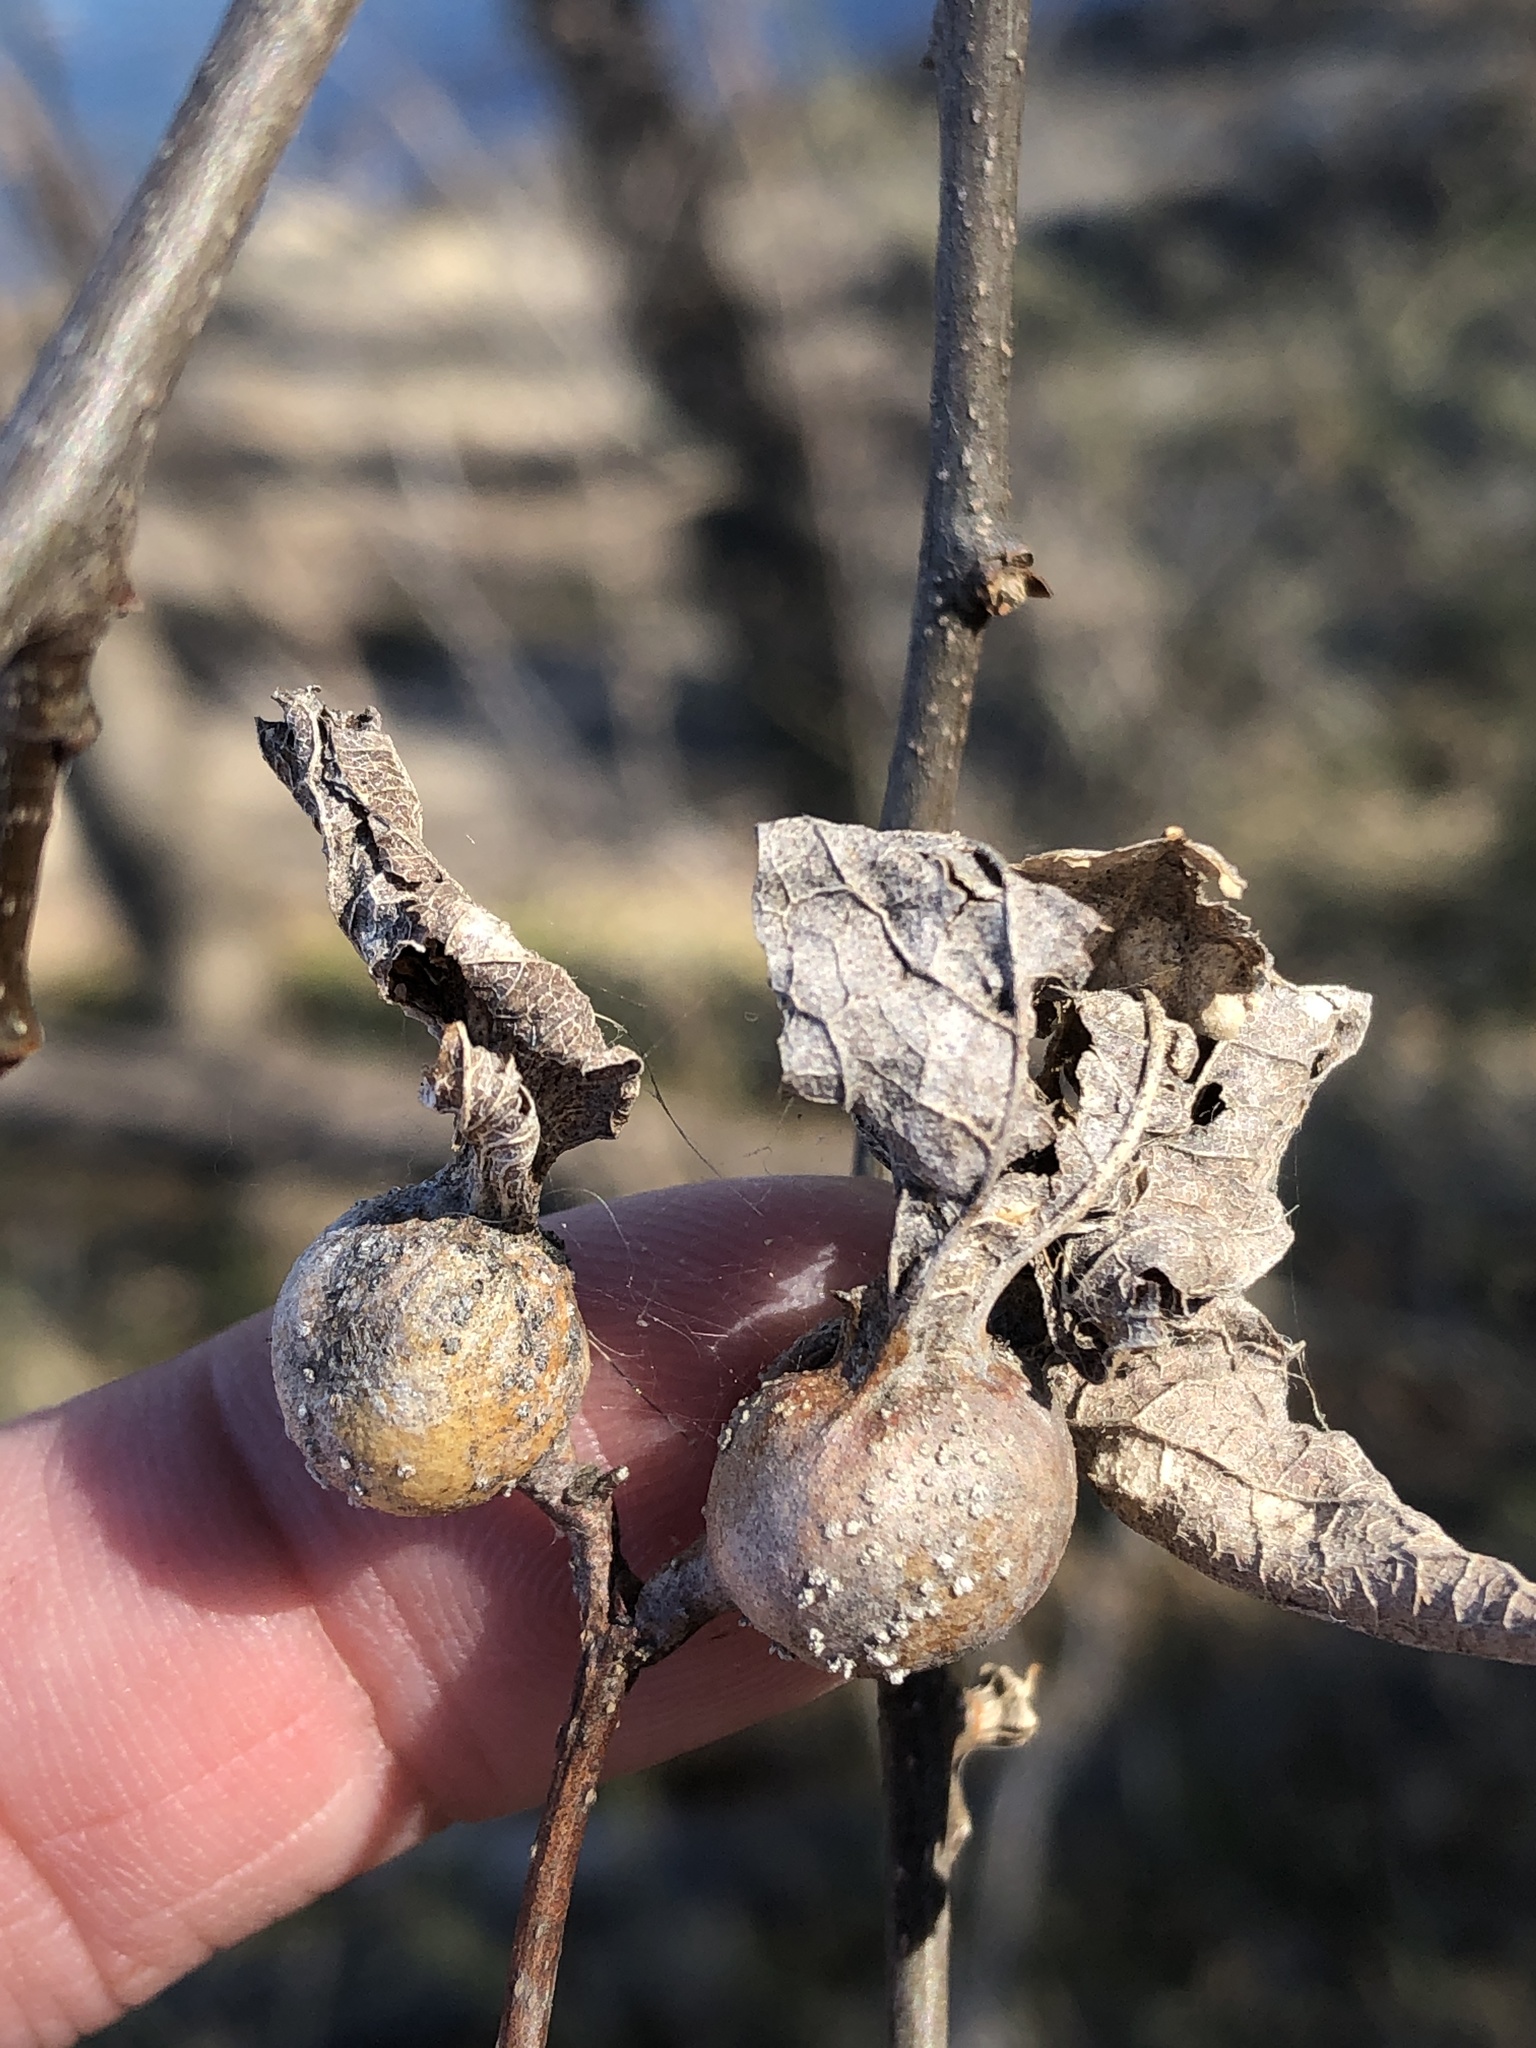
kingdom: Animalia
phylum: Arthropoda
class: Insecta
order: Hemiptera
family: Aphalaridae
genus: Pachypsylla
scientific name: Pachypsylla venusta
